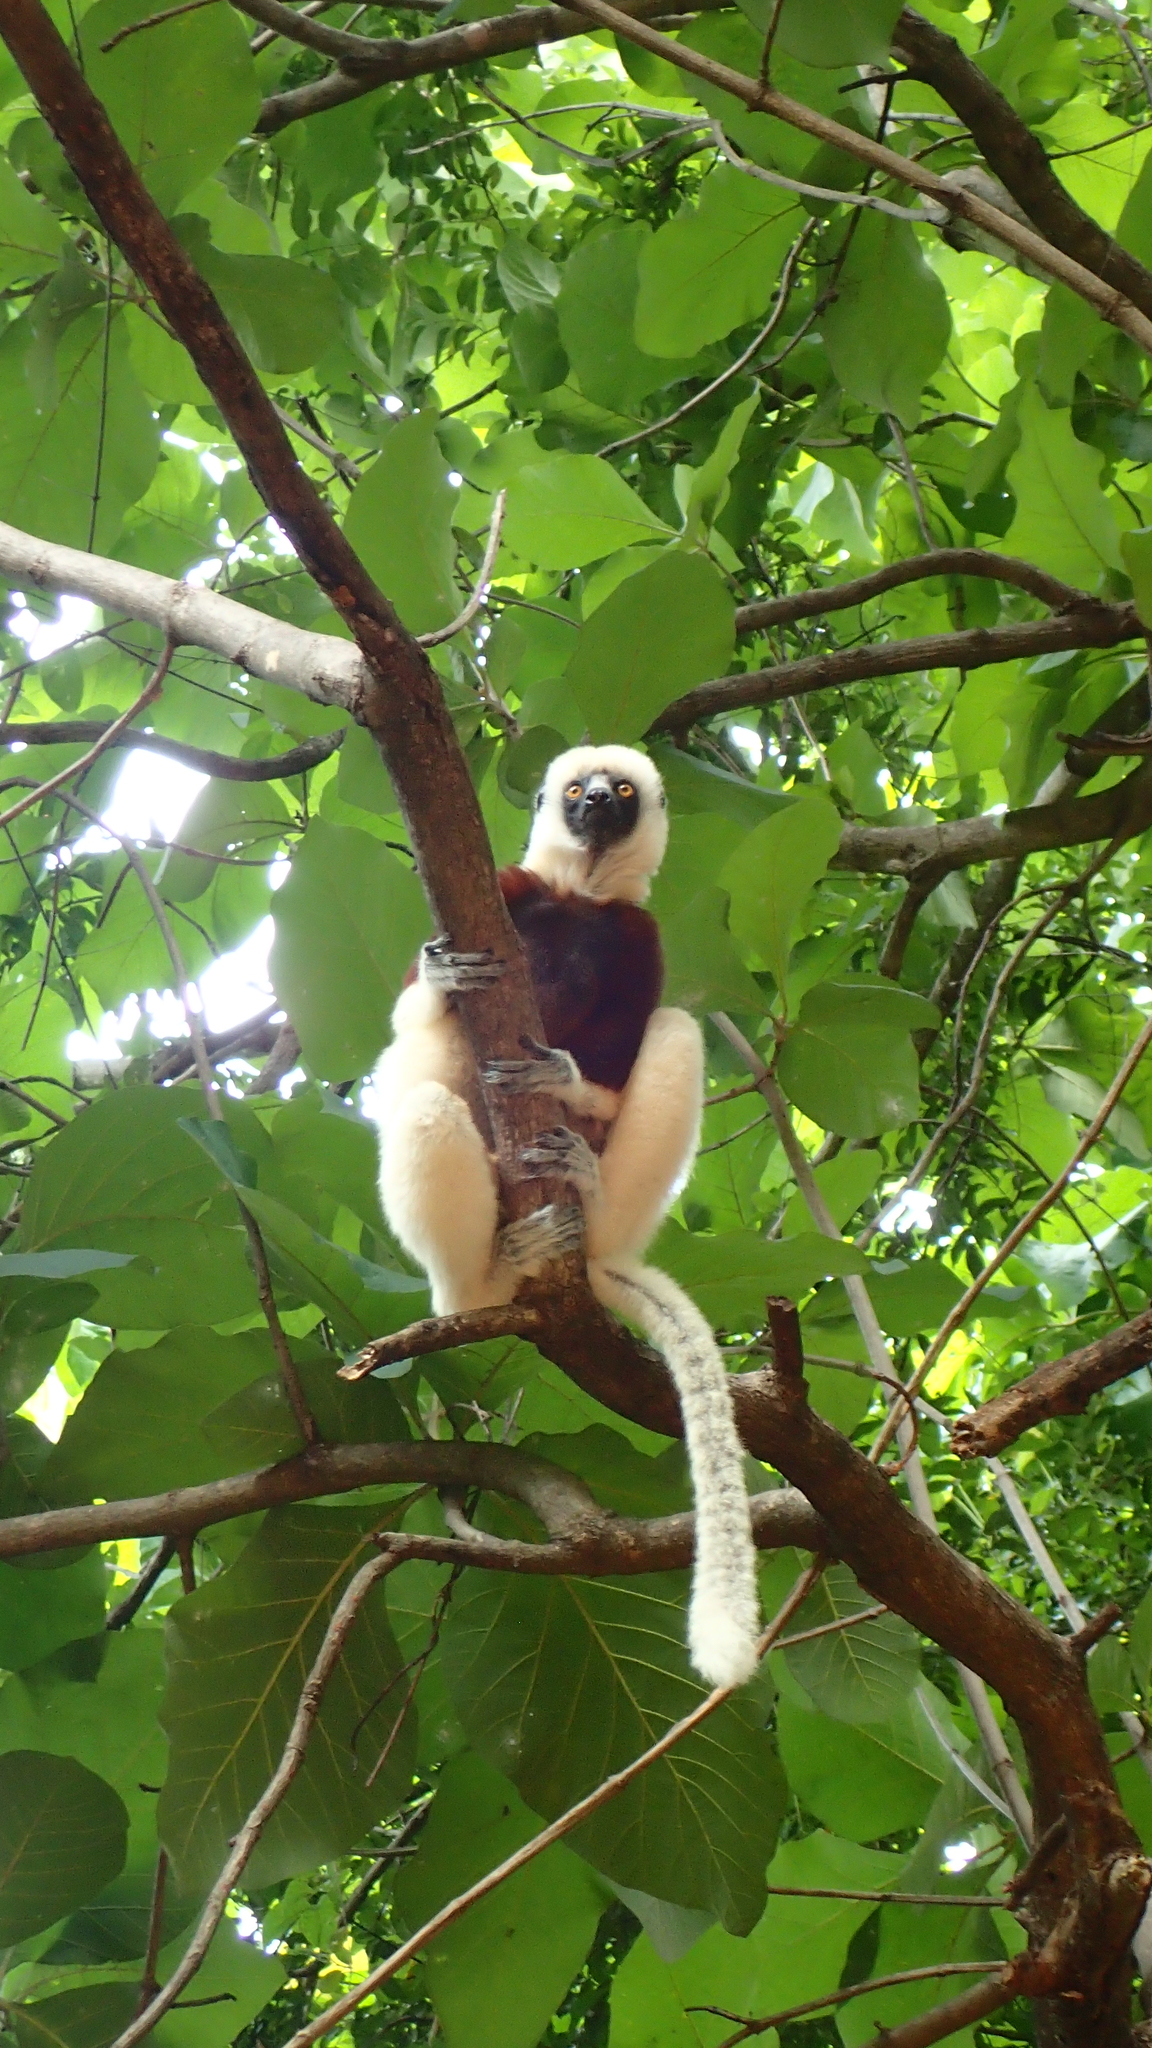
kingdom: Animalia
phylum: Chordata
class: Mammalia
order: Primates
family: Indriidae
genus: Propithecus
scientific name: Propithecus coquereli
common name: Coquerel's sifaka
